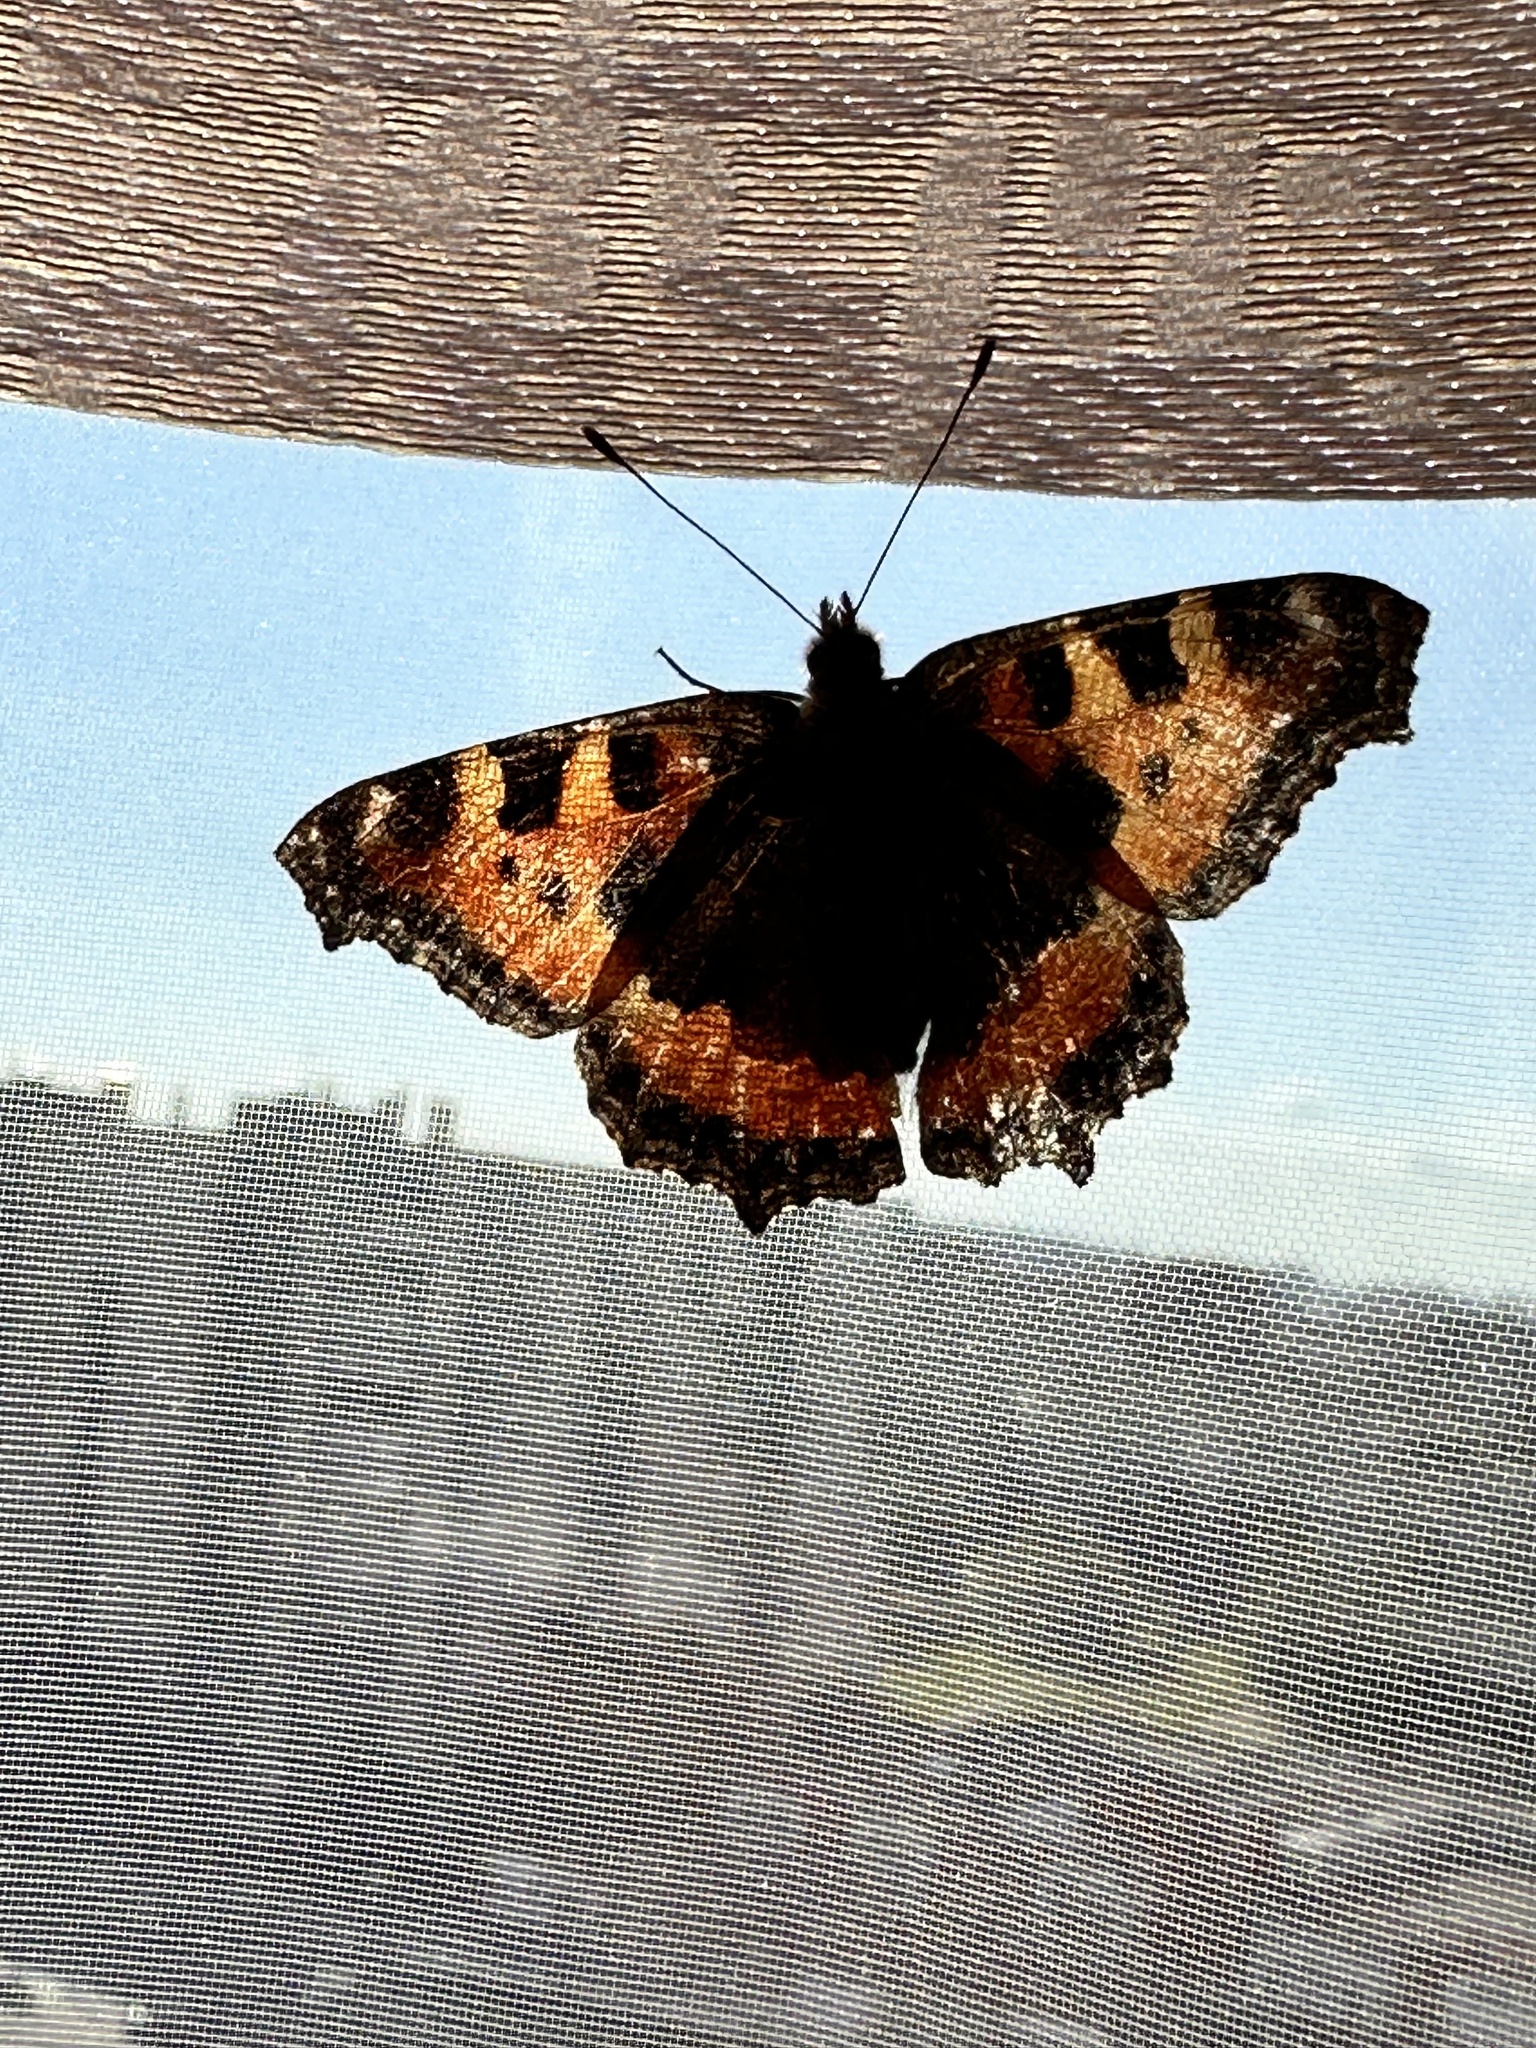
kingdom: Animalia
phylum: Arthropoda
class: Insecta
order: Lepidoptera
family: Nymphalidae
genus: Aglais
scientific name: Aglais urticae
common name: Small tortoiseshell
